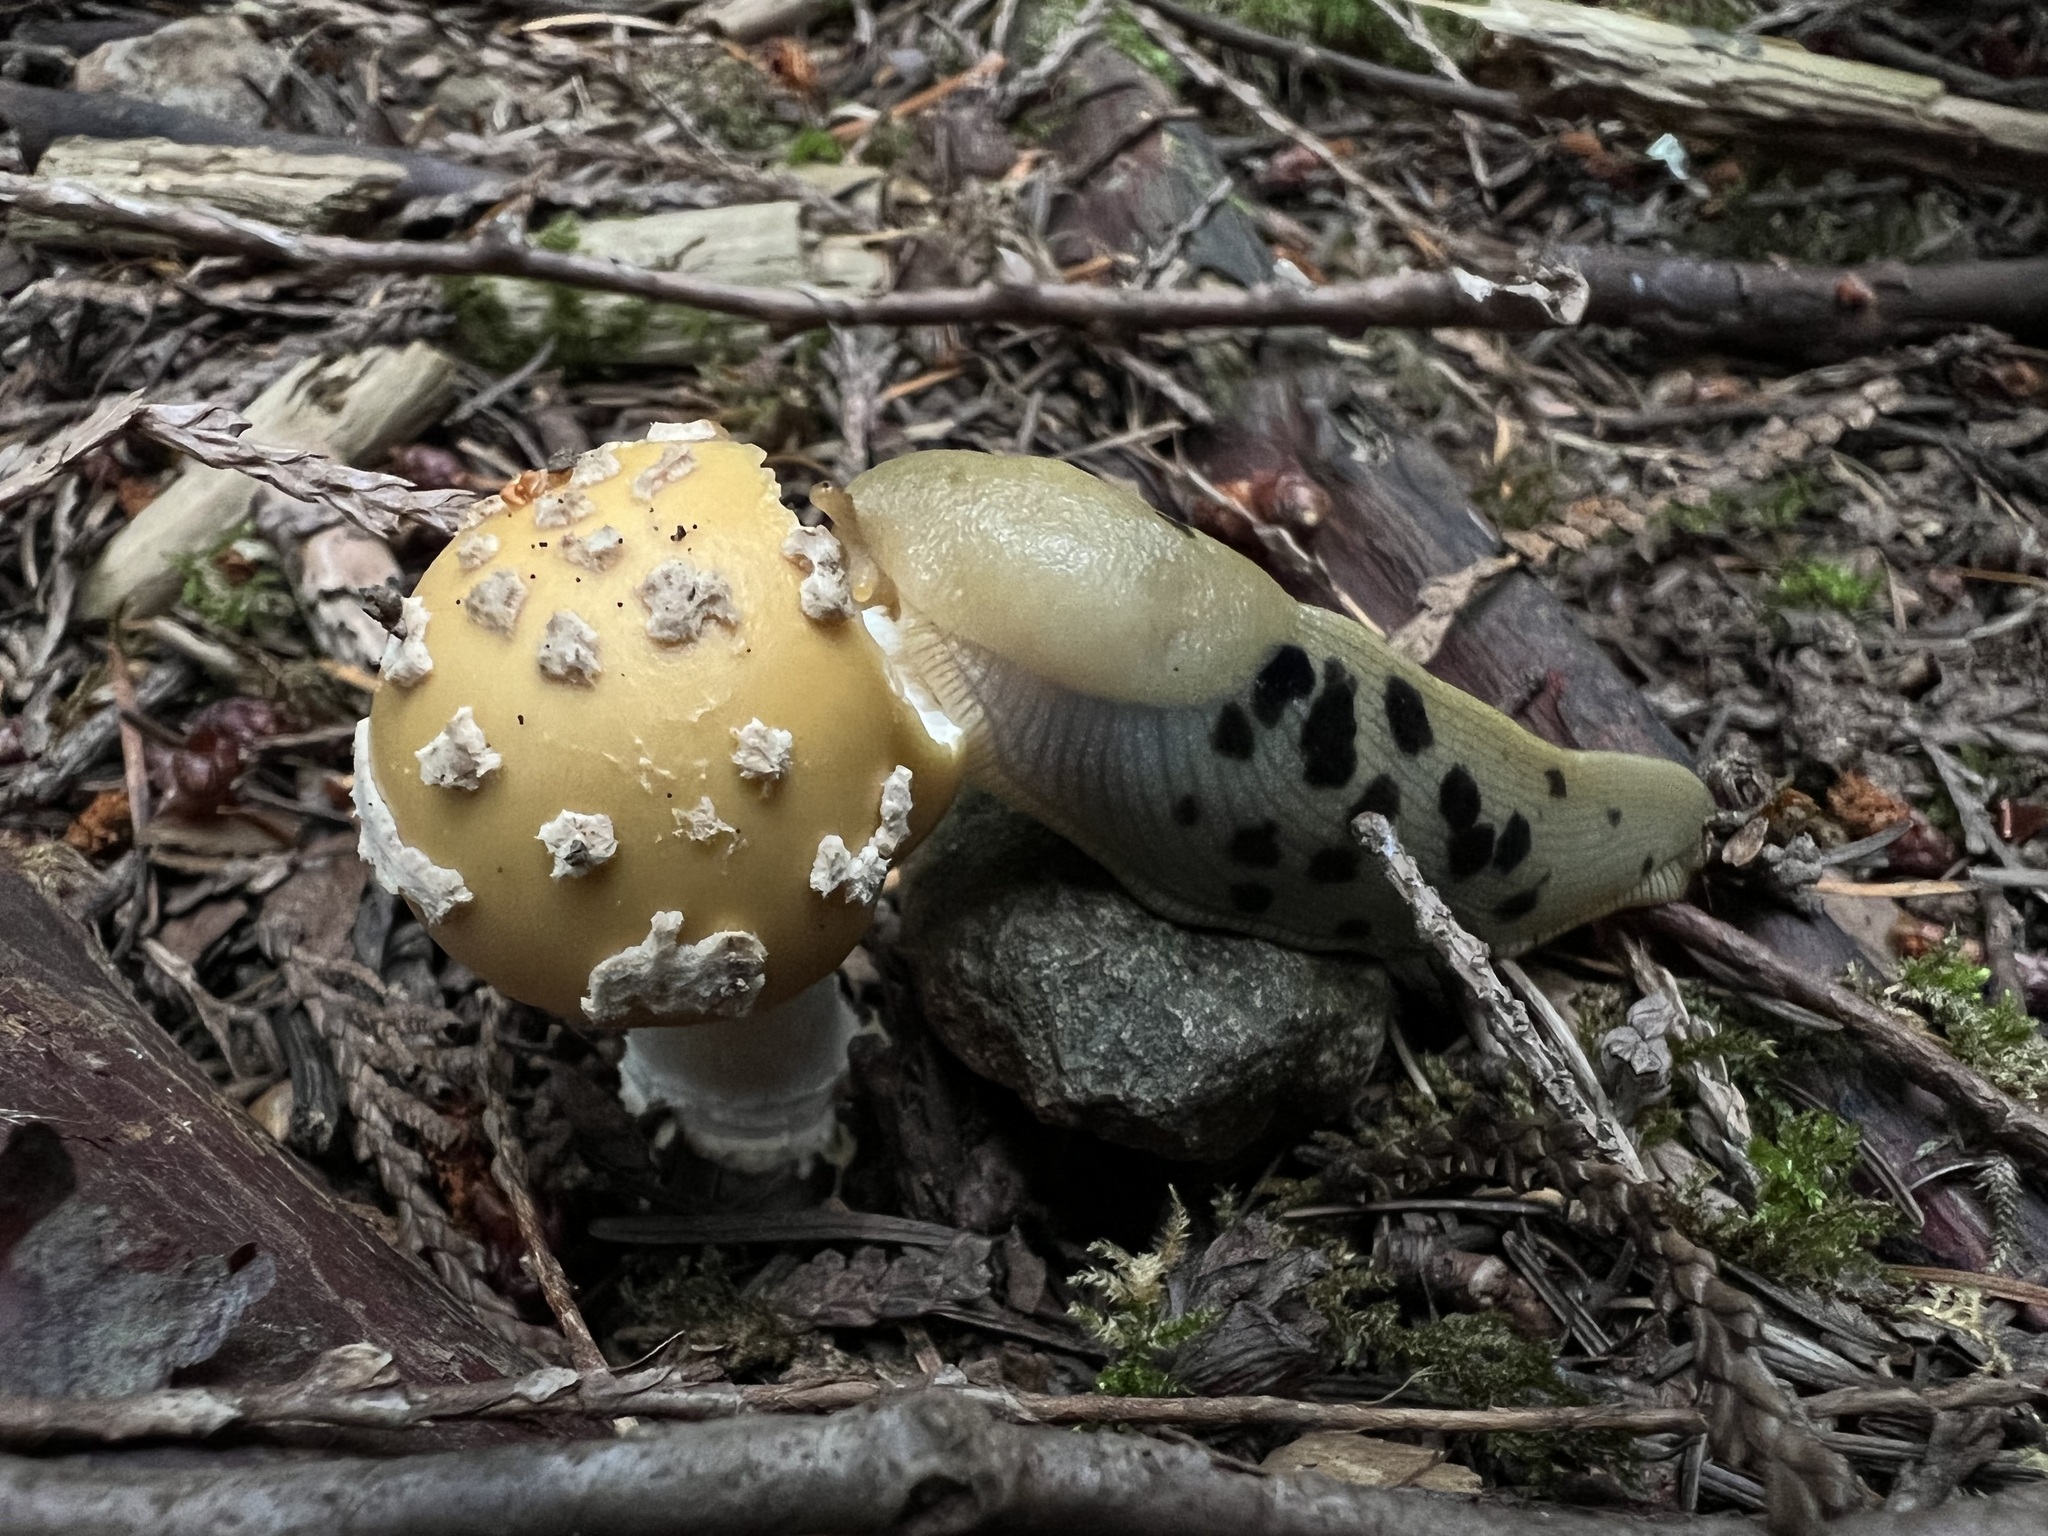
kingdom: Animalia
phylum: Mollusca
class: Gastropoda
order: Stylommatophora
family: Ariolimacidae
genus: Ariolimax
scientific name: Ariolimax columbianus
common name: Pacific banana slug
